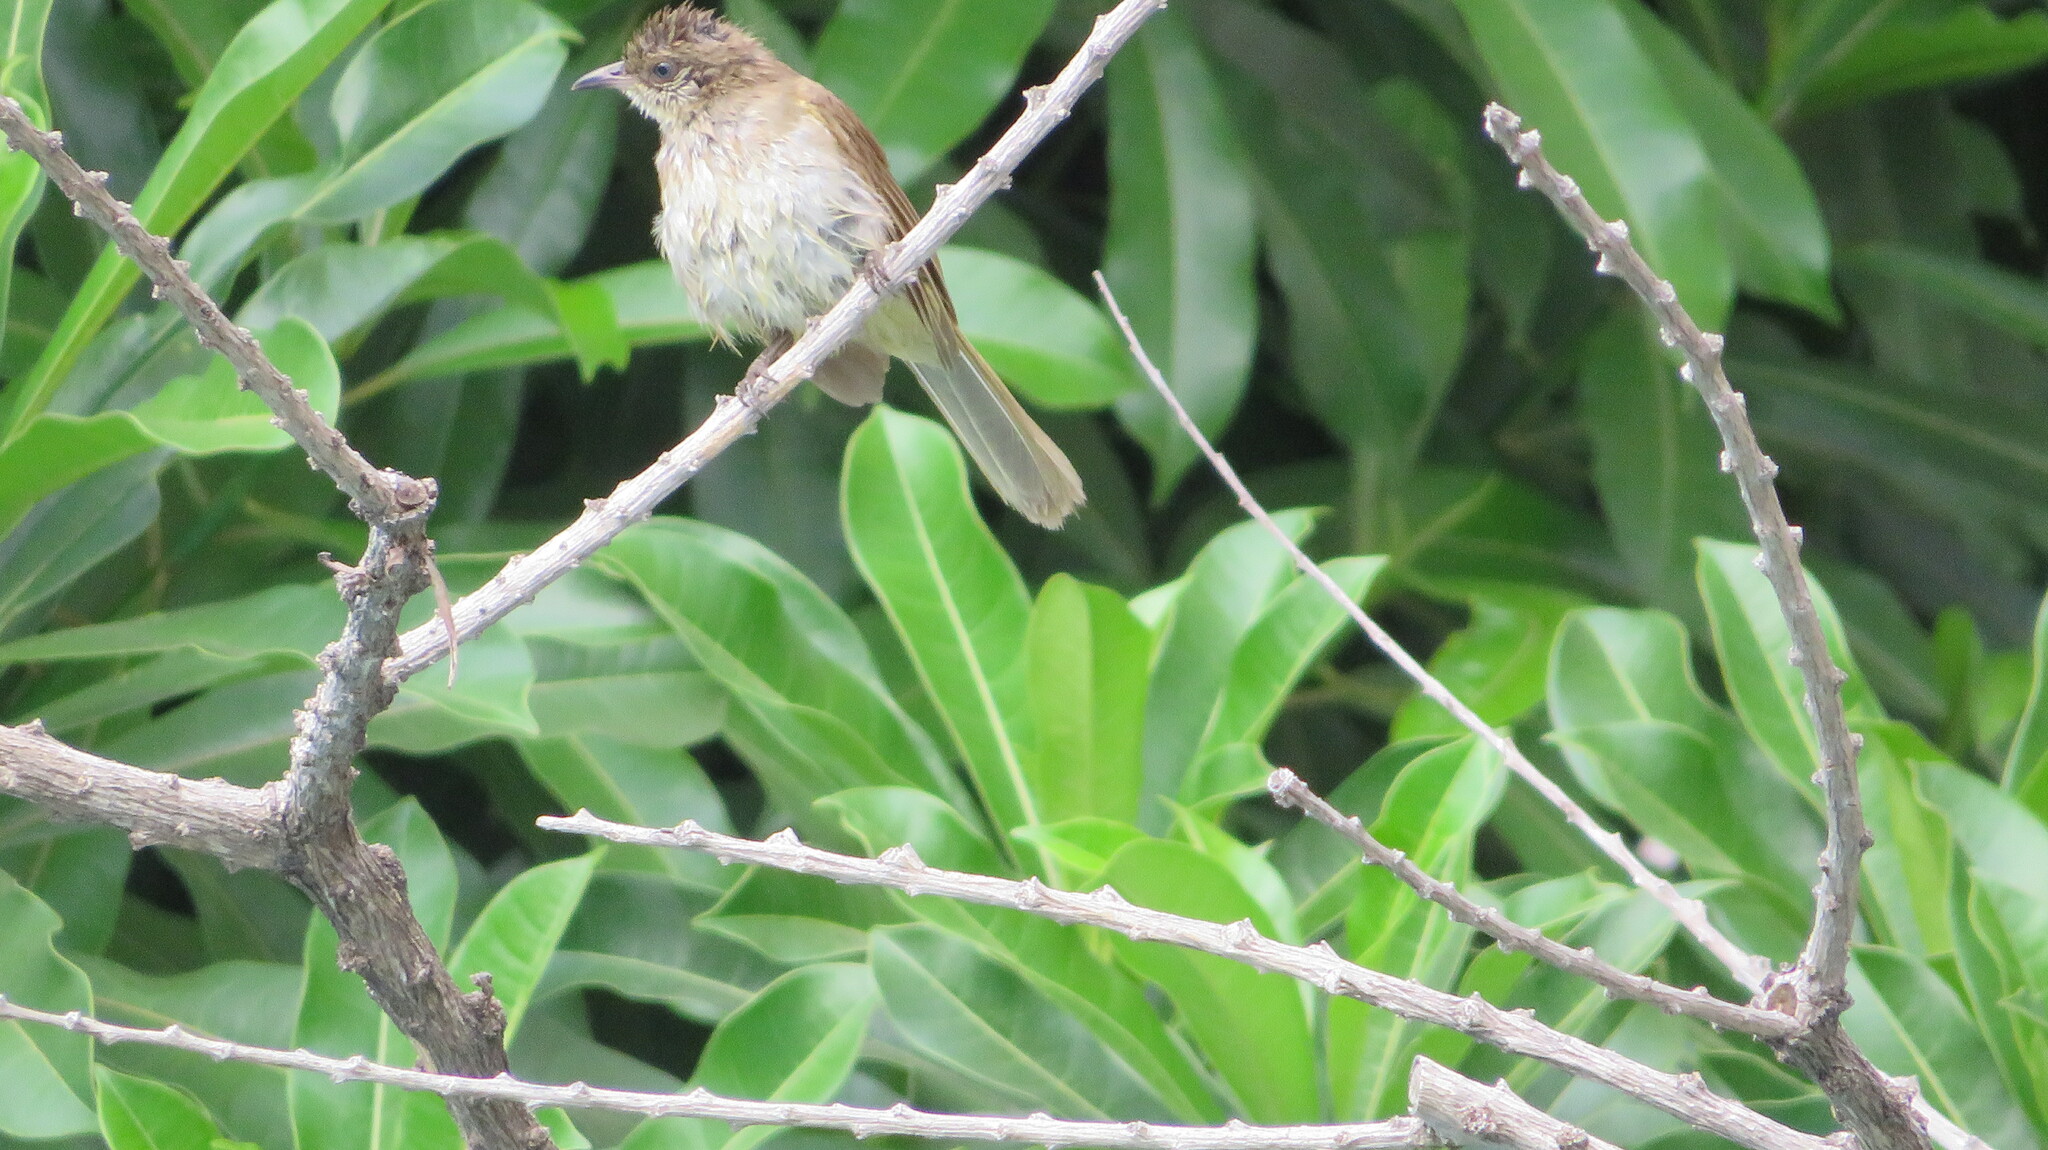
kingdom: Animalia
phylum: Chordata
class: Aves
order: Passeriformes
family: Pycnonotidae
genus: Pycnonotus
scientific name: Pycnonotus blanfordi
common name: Streak-eared bulbul
